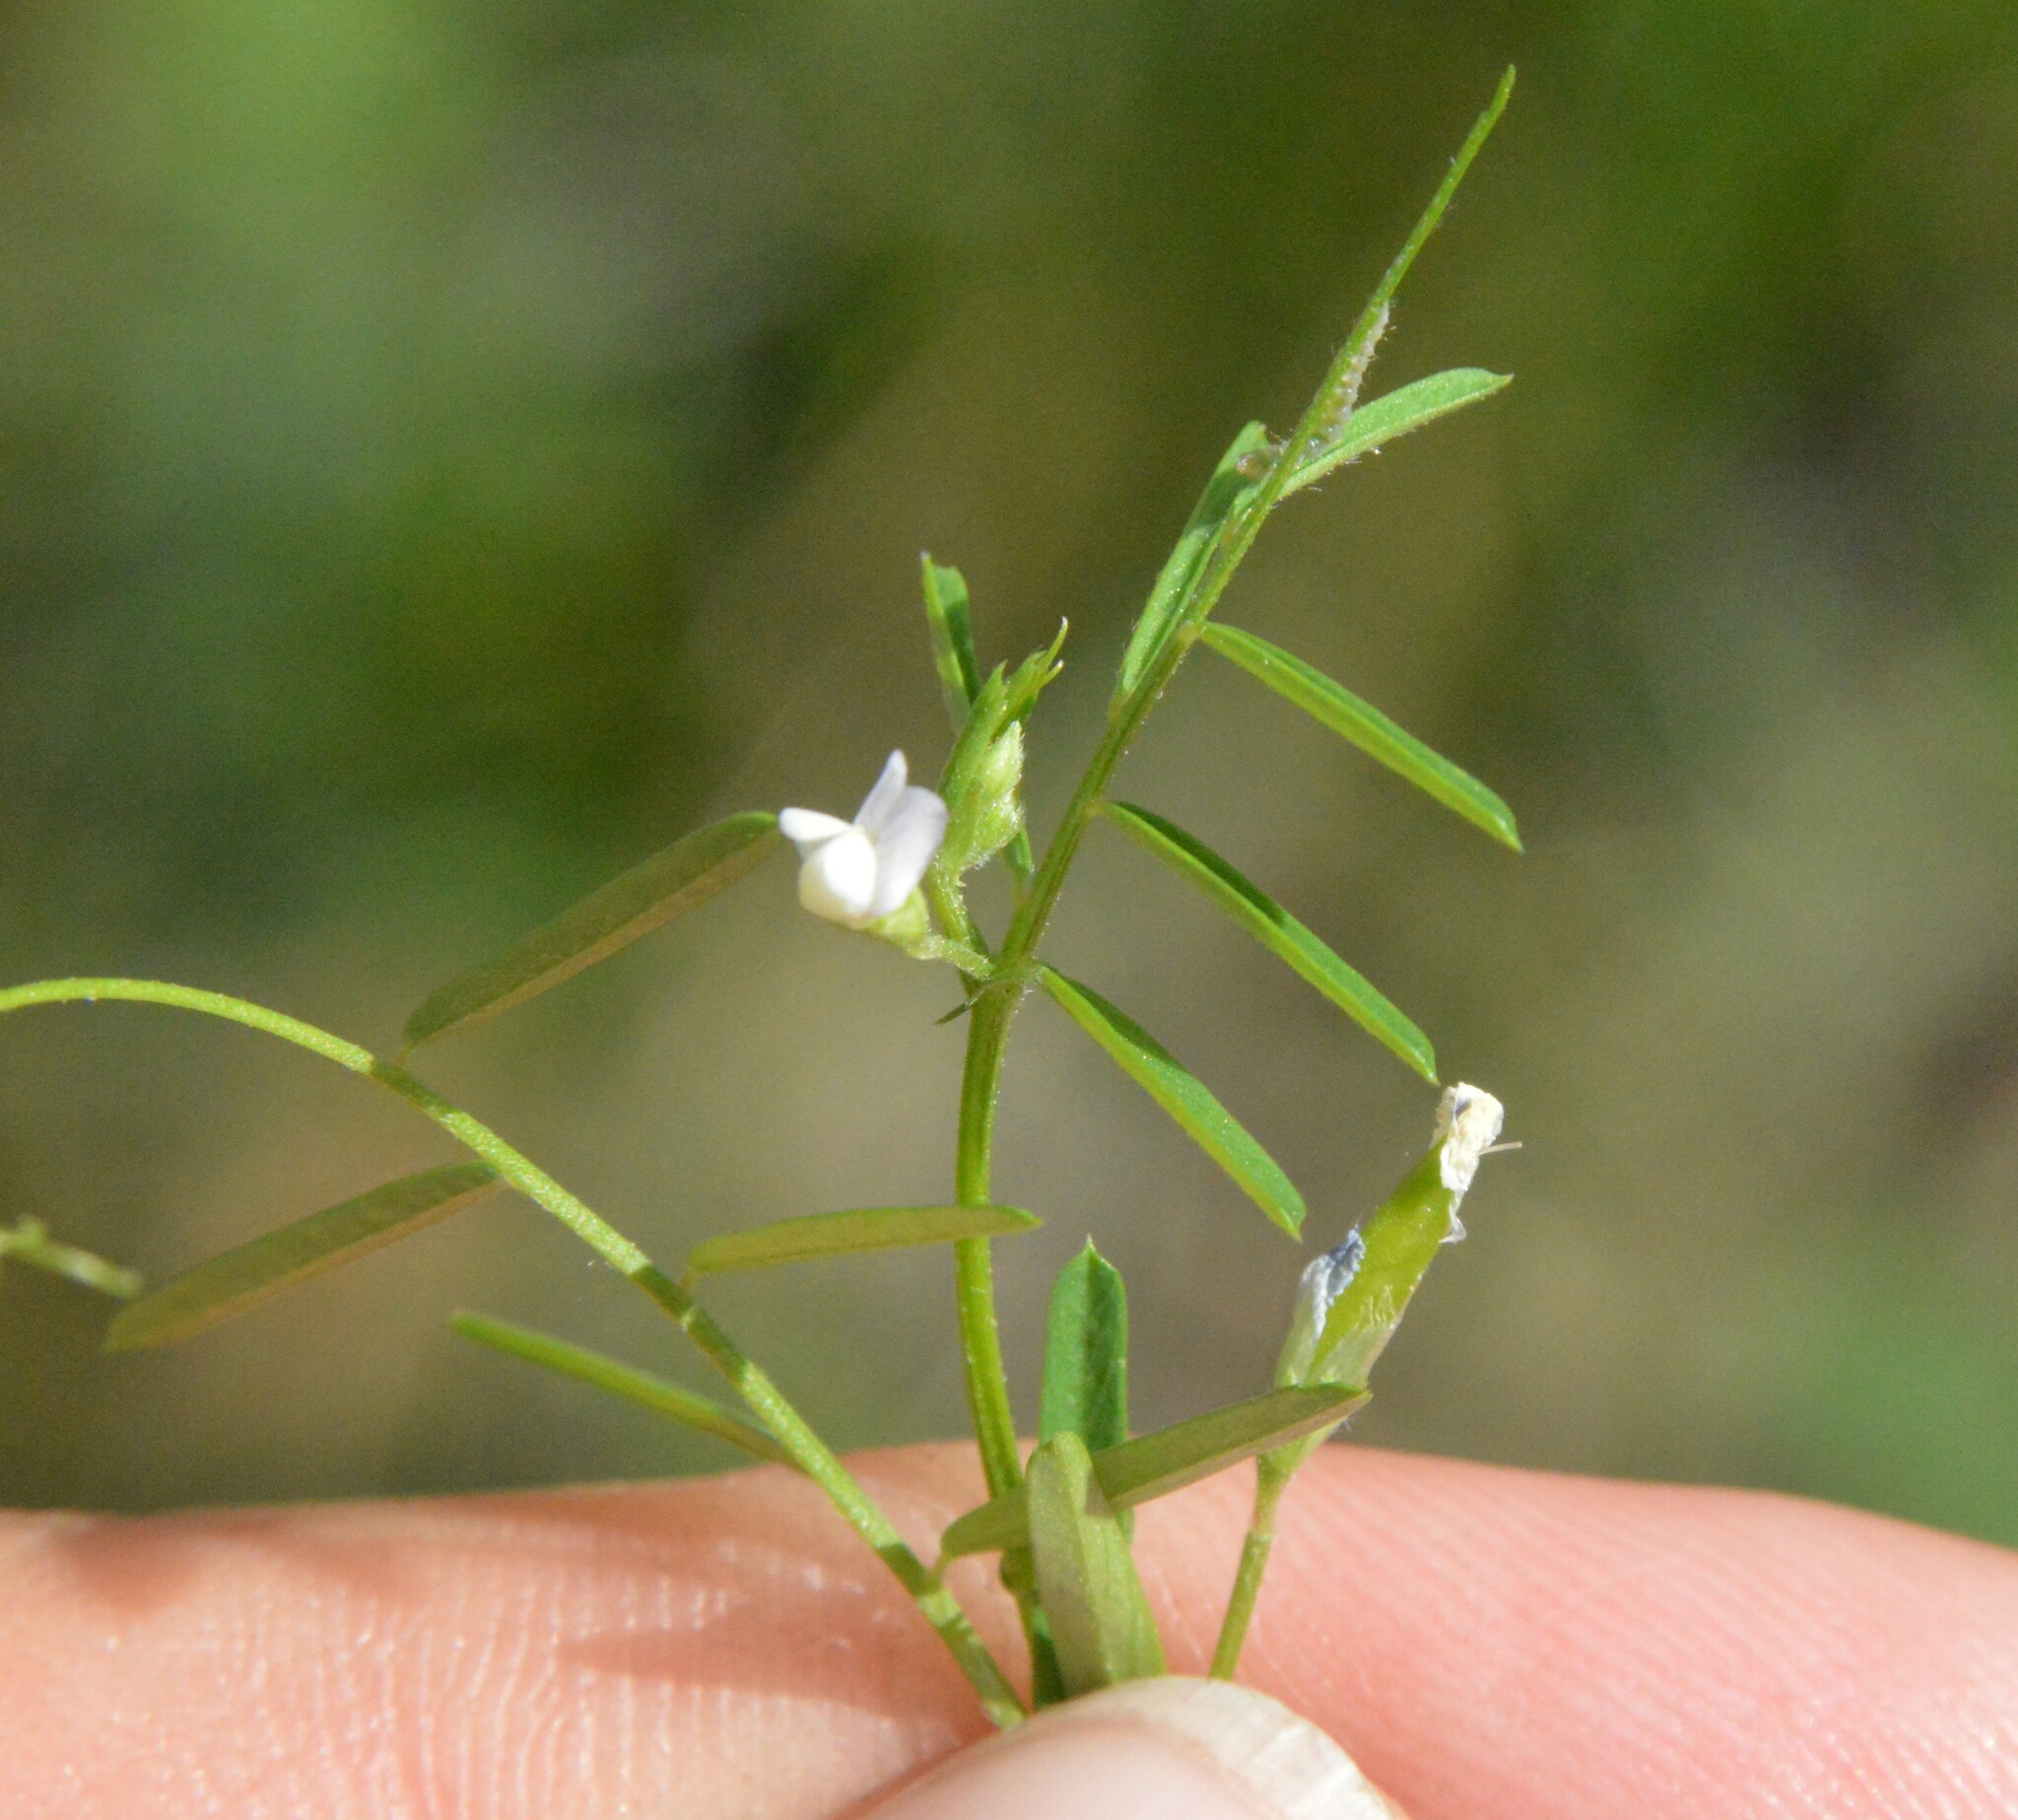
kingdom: Plantae
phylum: Tracheophyta
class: Magnoliopsida
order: Fabales
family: Fabaceae
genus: Vicia
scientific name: Vicia minutiflora
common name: Pygmy-flower vetch
